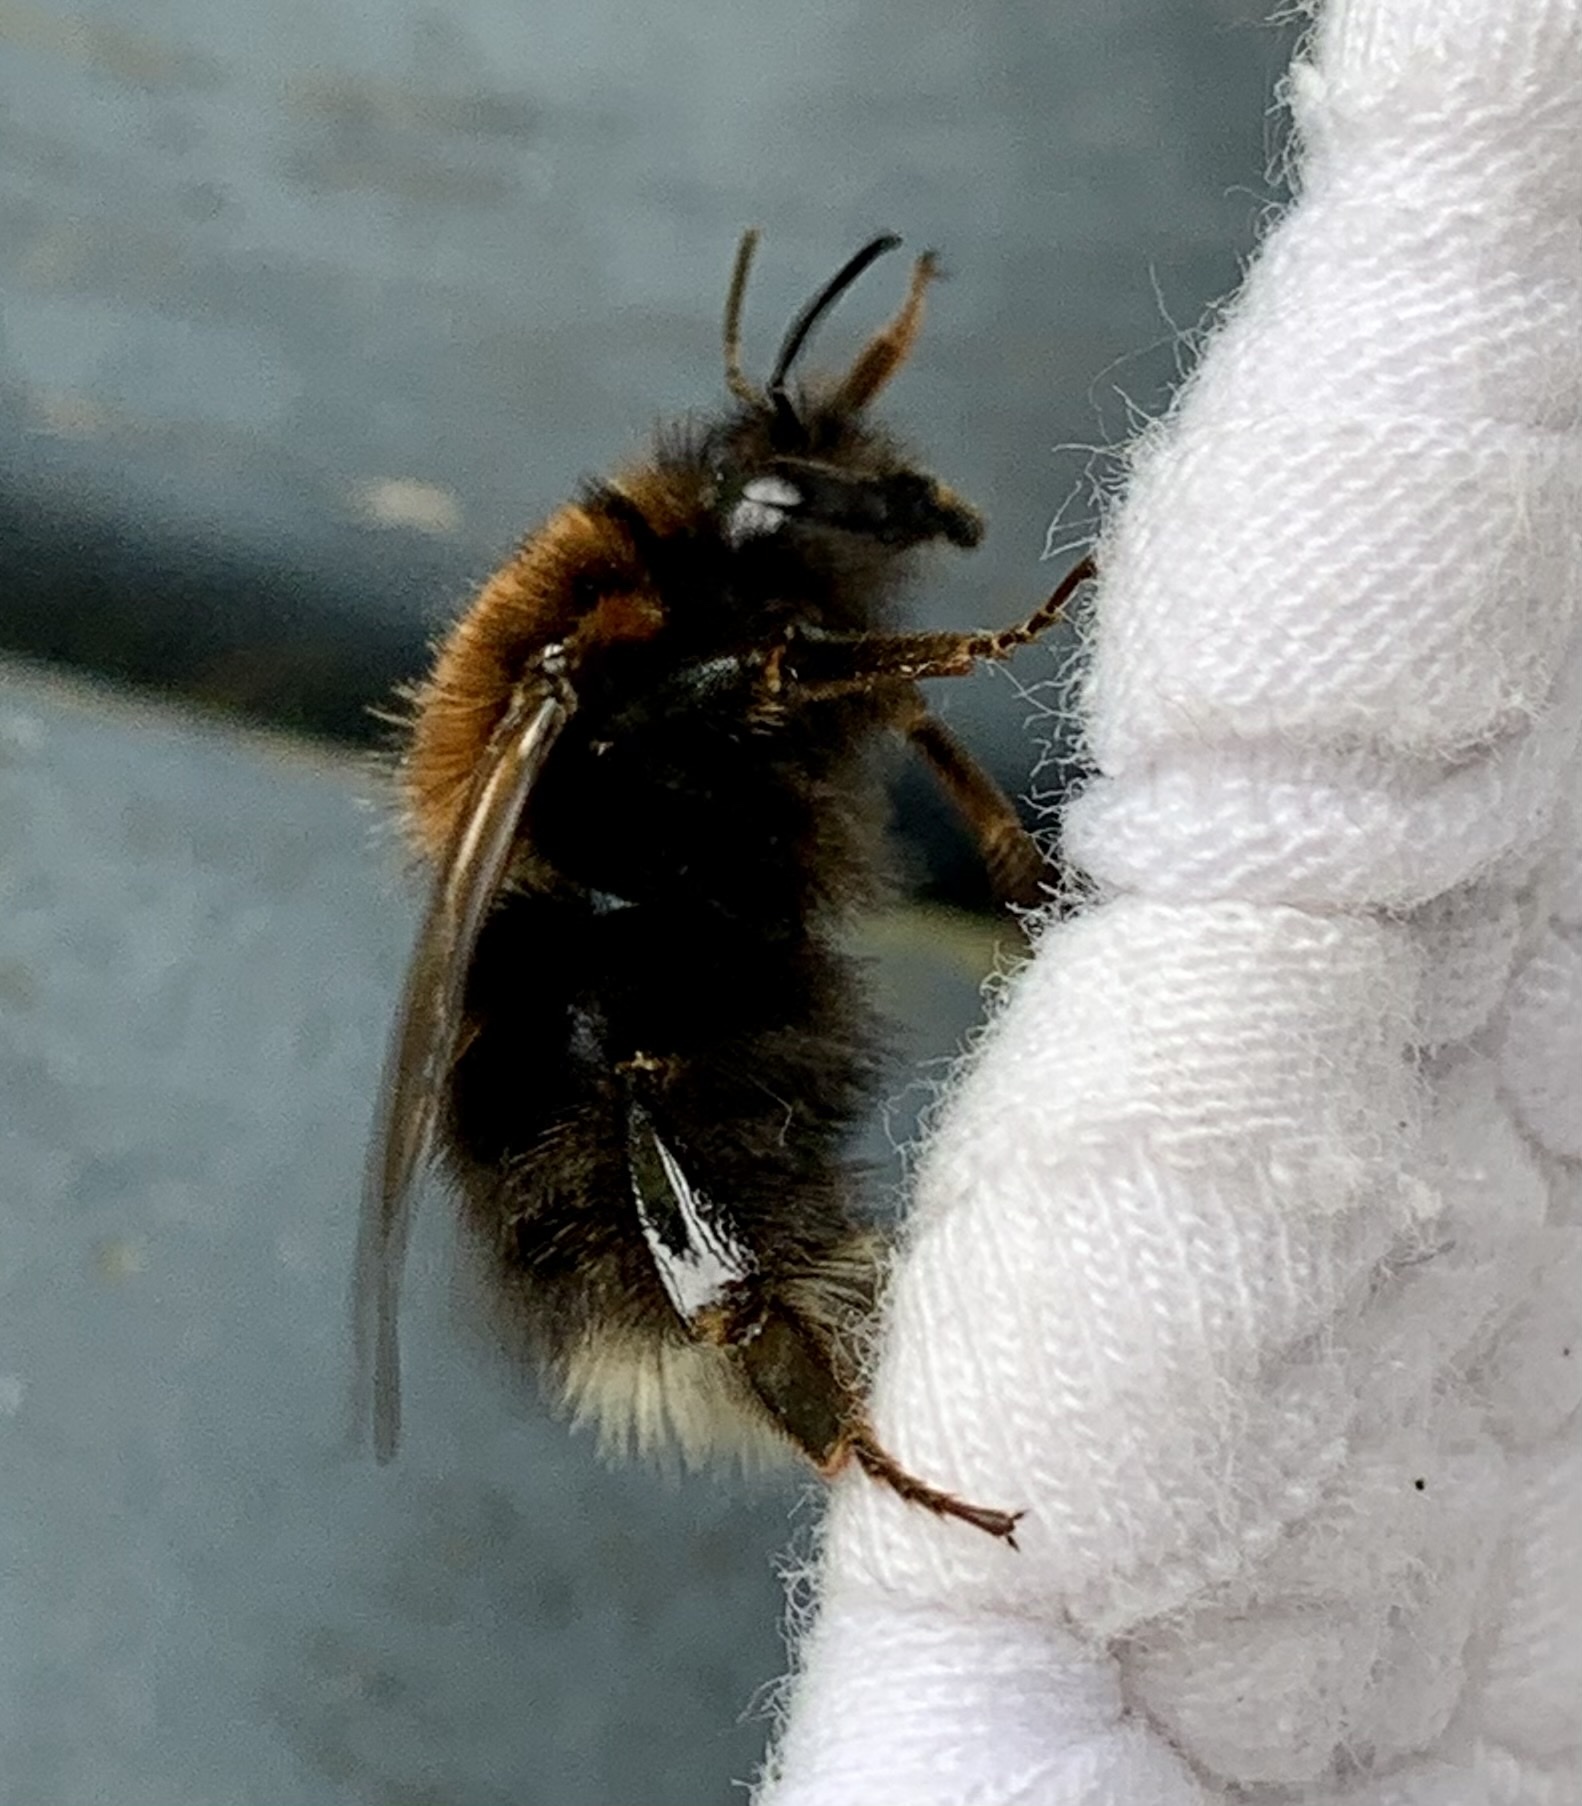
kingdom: Animalia
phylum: Arthropoda
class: Insecta
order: Hymenoptera
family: Apidae
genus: Bombus
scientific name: Bombus hypnorum
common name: New garden bumblebee
